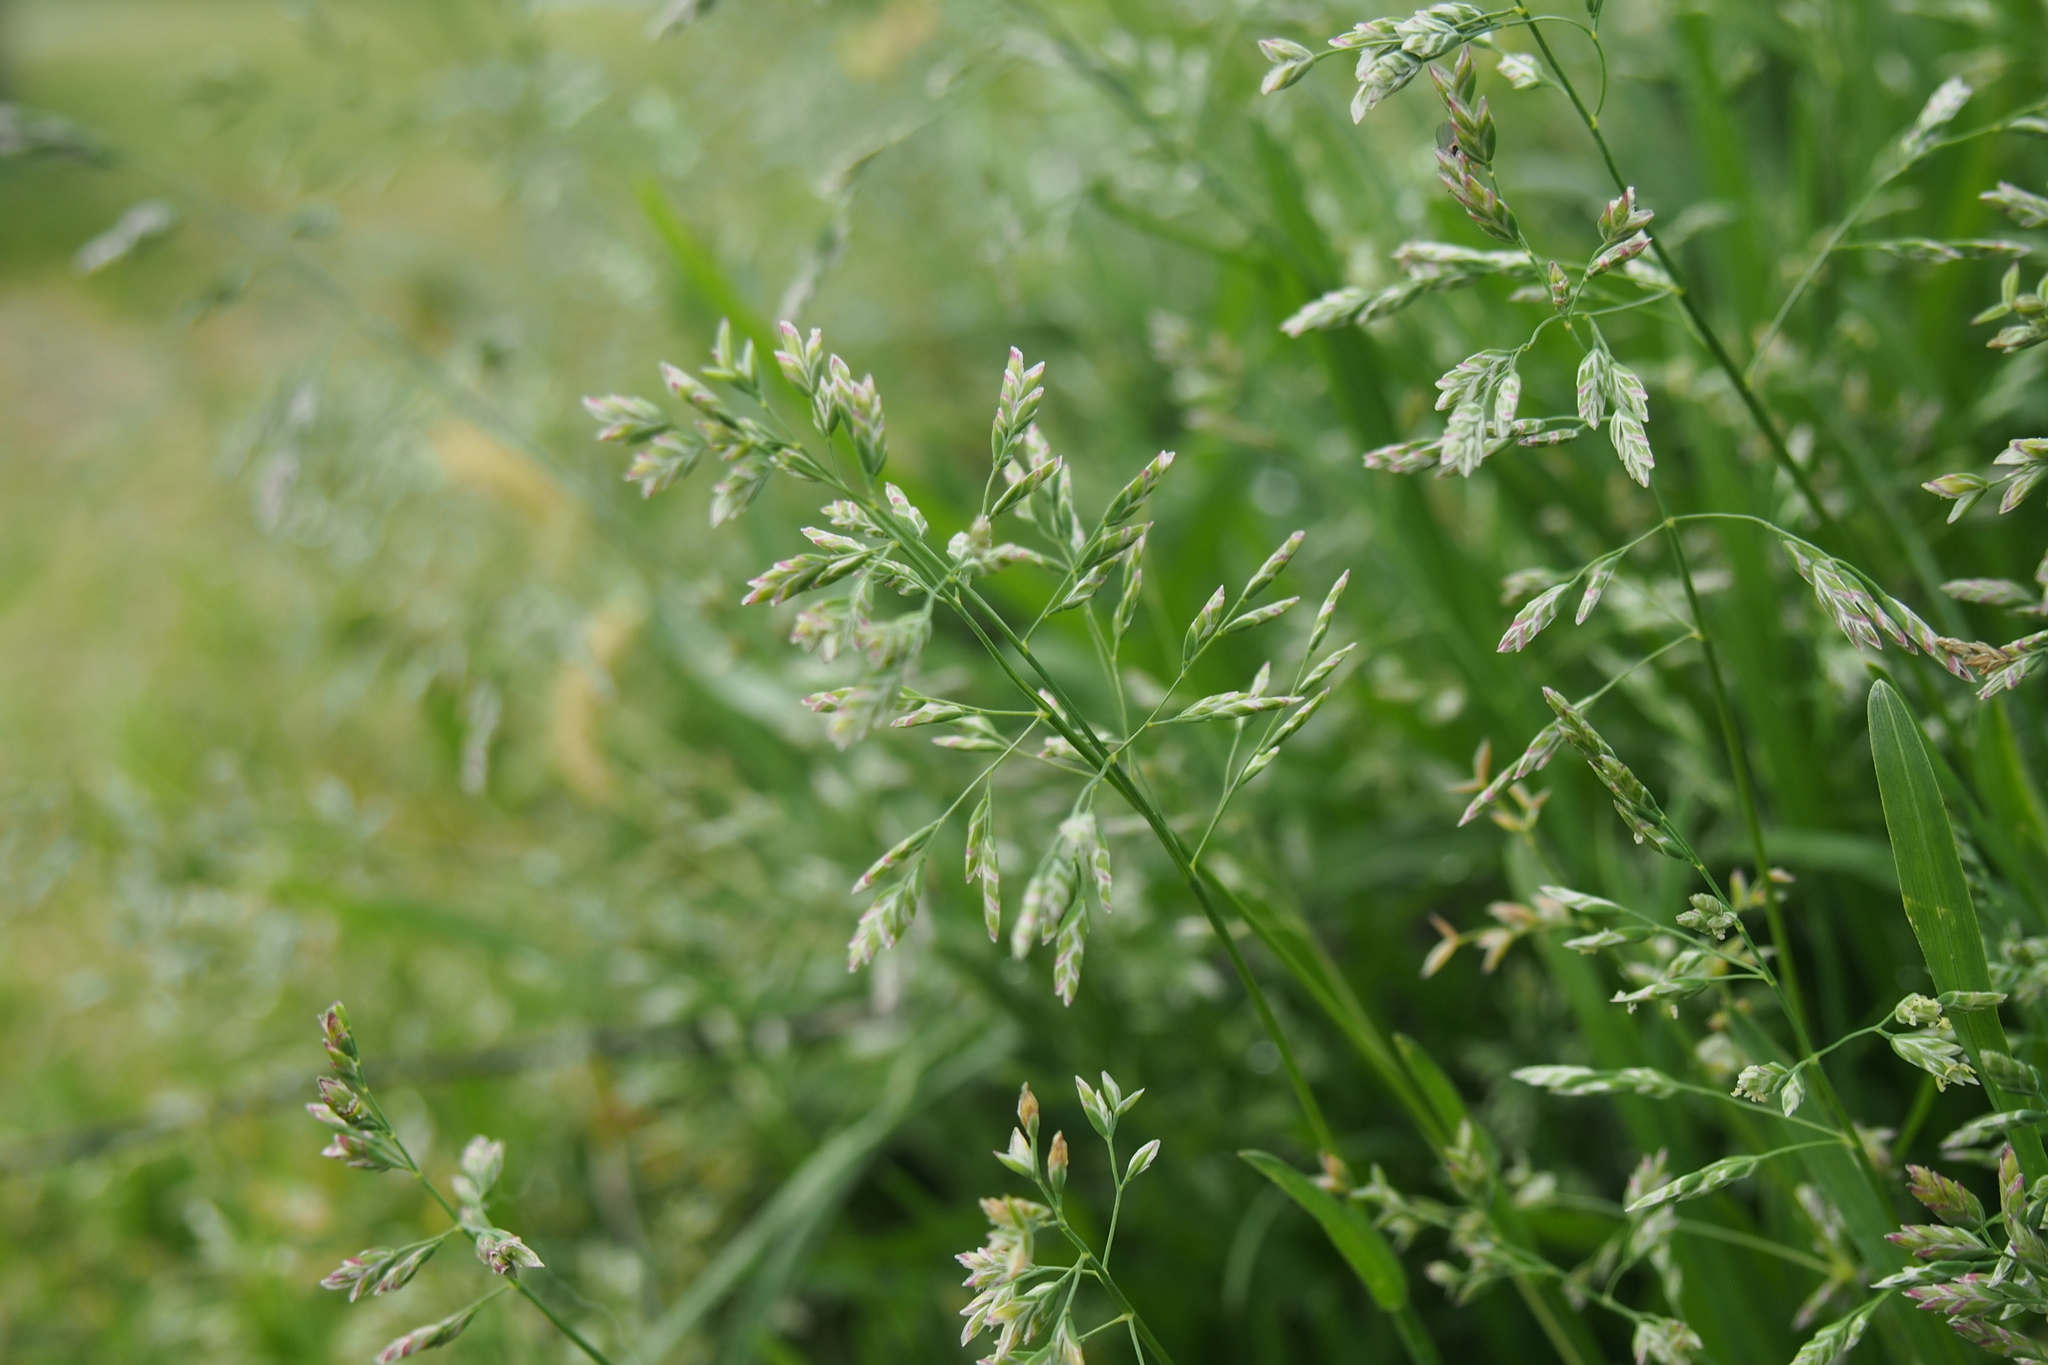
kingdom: Plantae
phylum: Tracheophyta
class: Liliopsida
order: Poales
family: Poaceae
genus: Poa
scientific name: Poa annua
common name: Annual bluegrass
